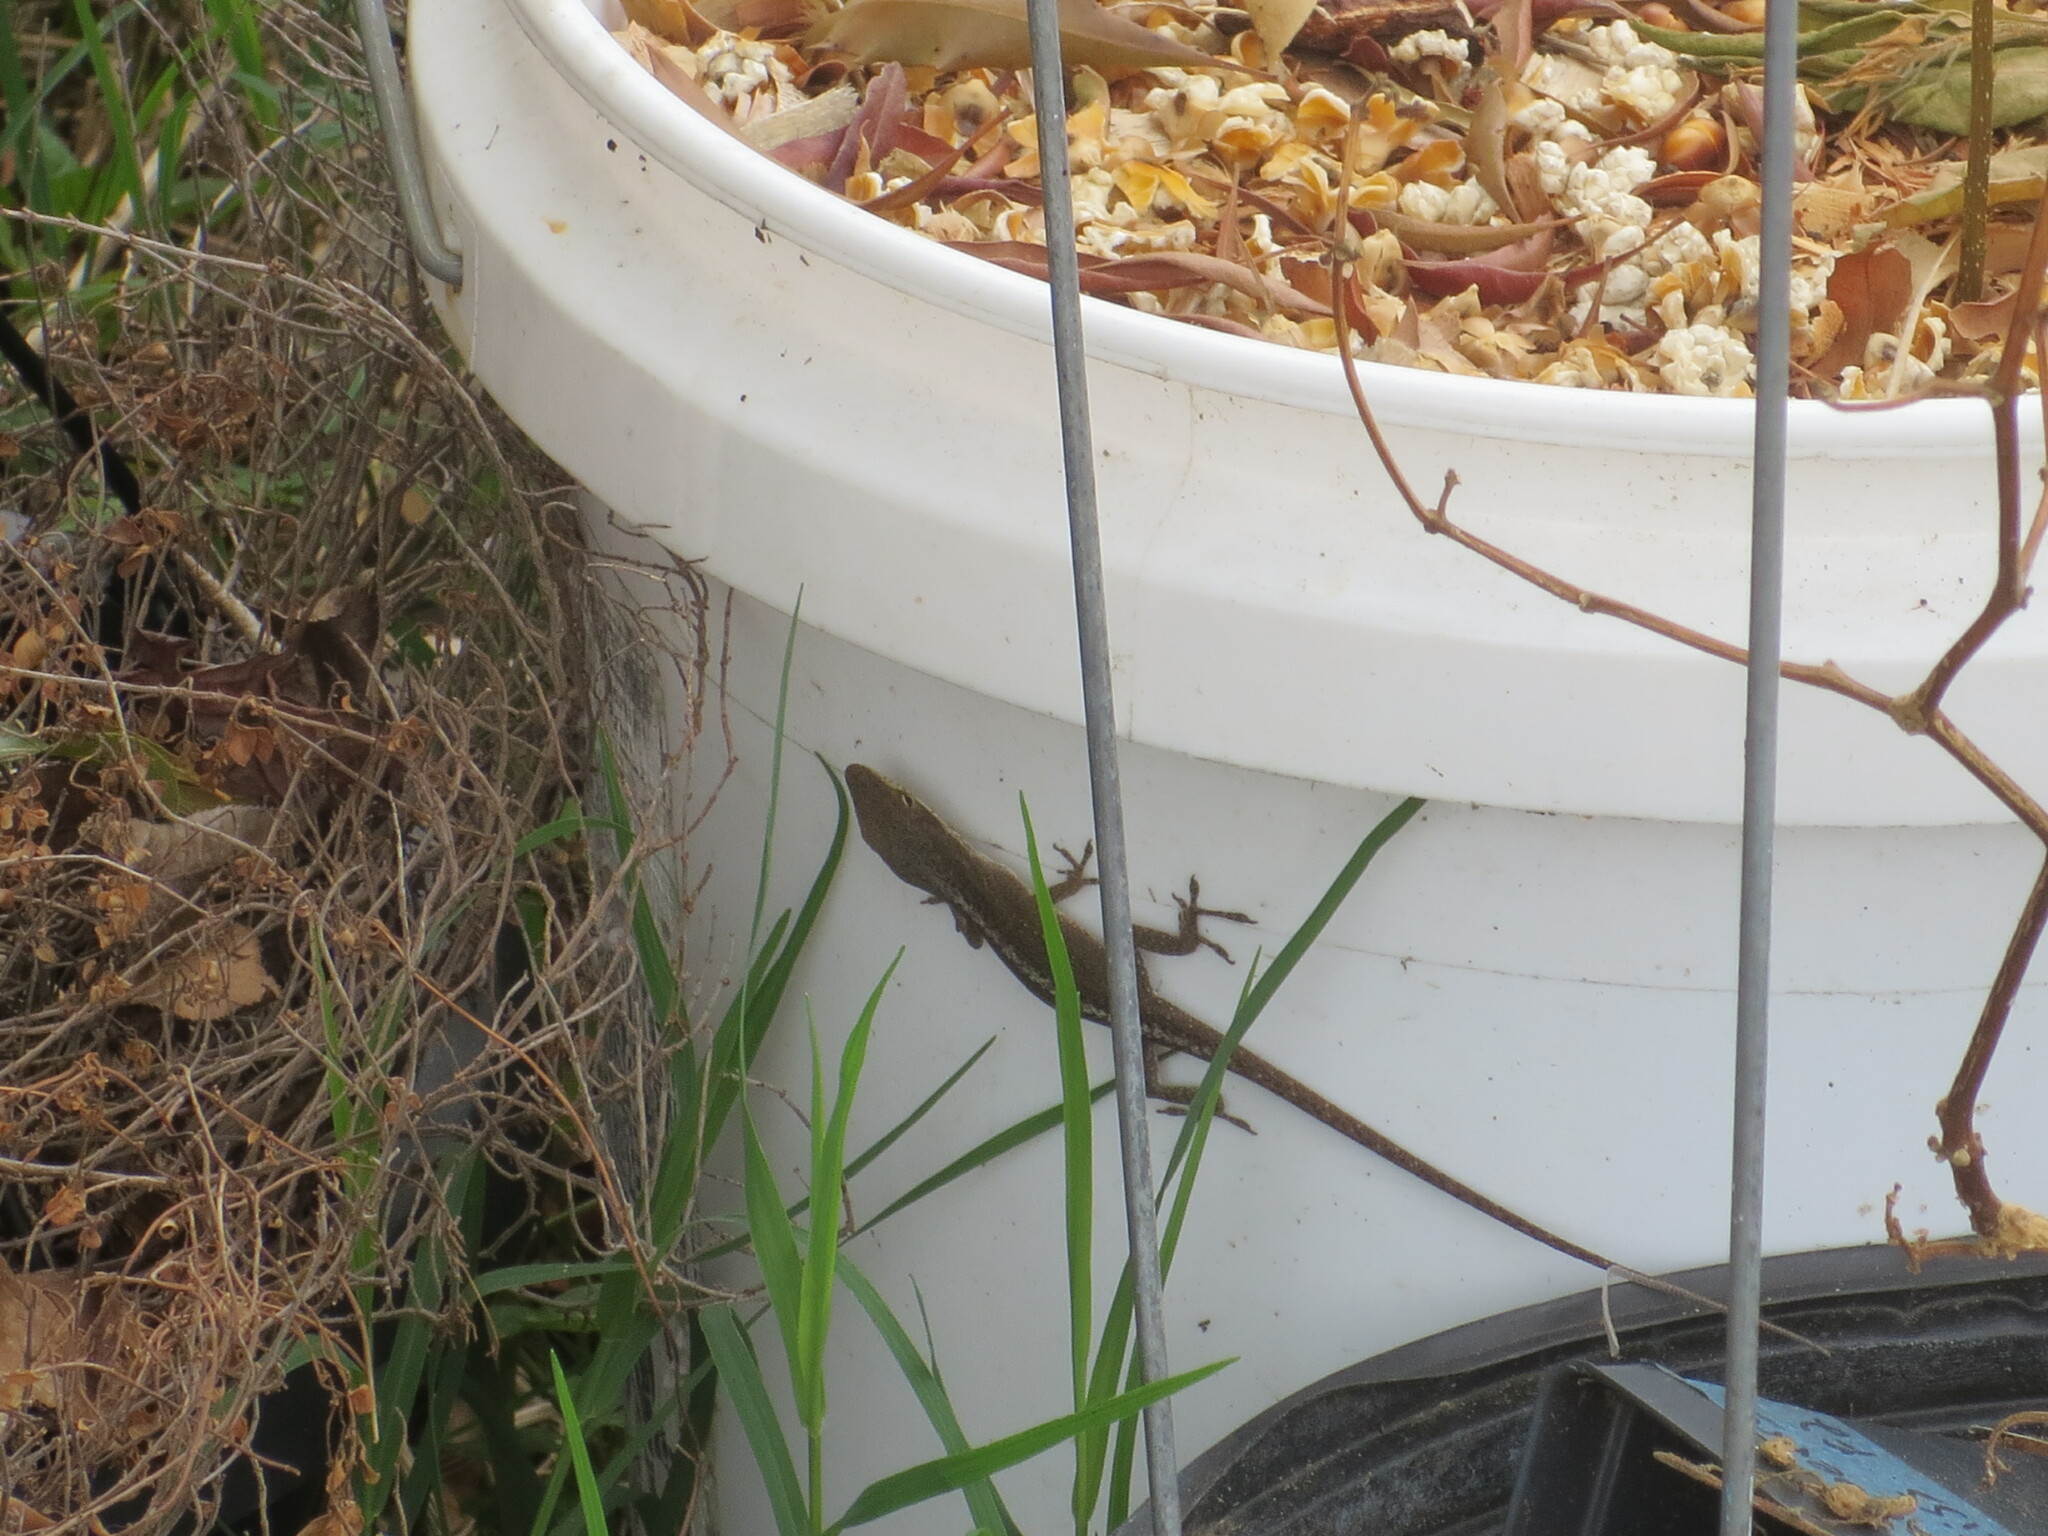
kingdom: Animalia
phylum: Chordata
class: Squamata
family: Dactyloidae
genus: Anolis
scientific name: Anolis carolinensis
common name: Green anole
